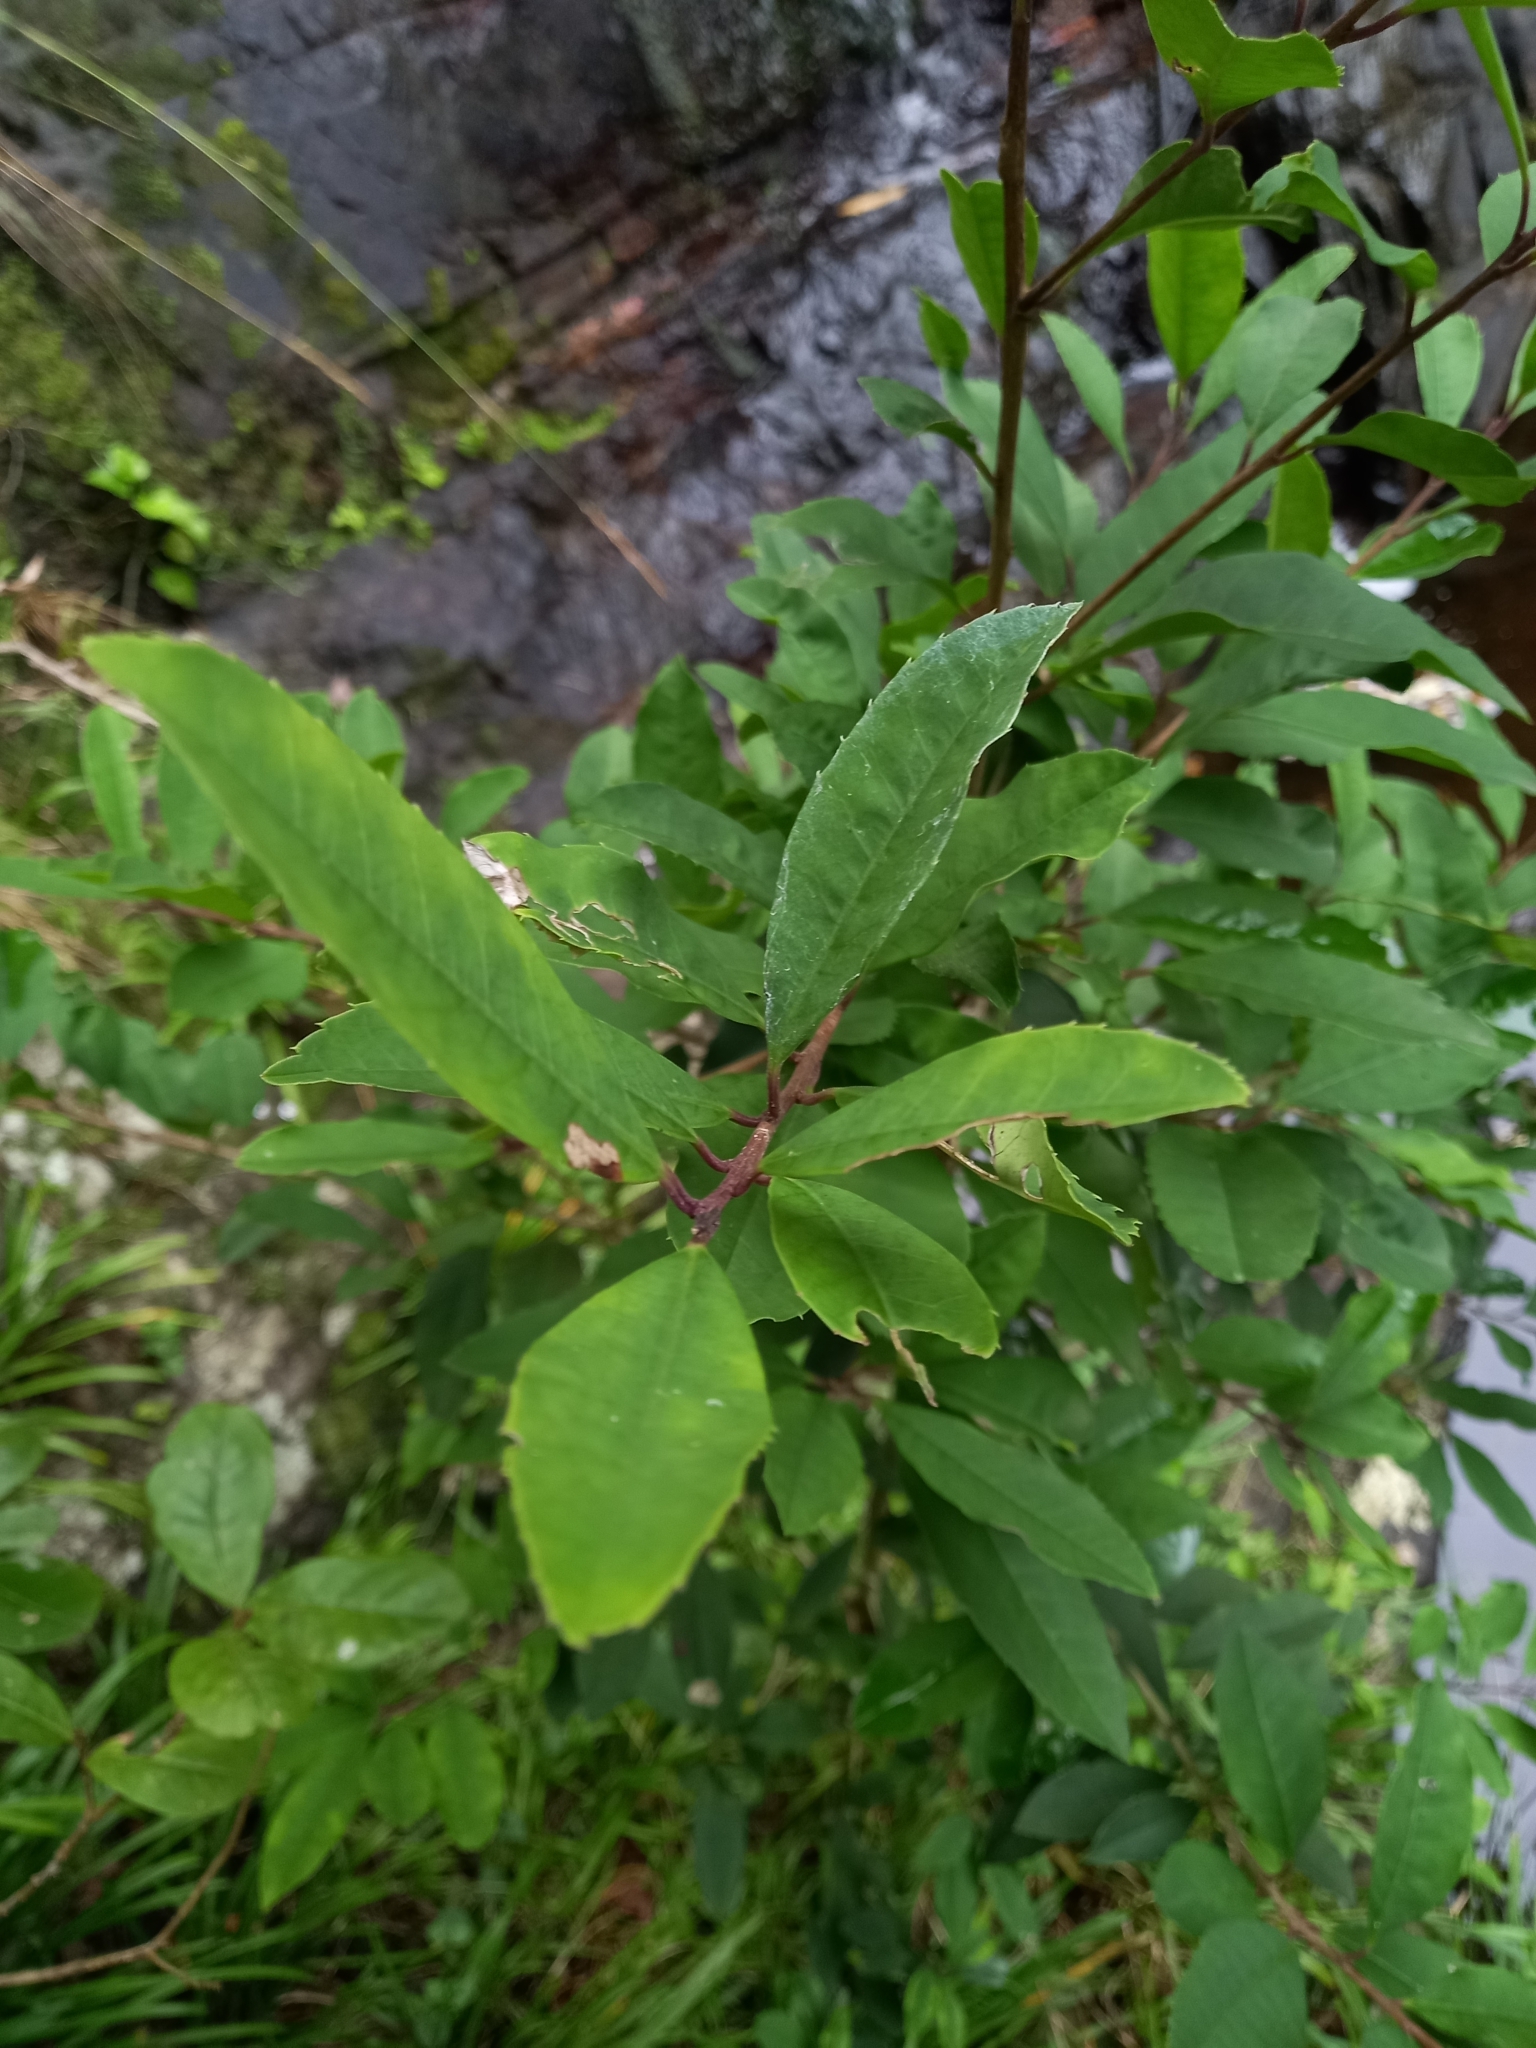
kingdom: Plantae
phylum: Tracheophyta
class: Magnoliopsida
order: Aquifoliales
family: Aquifoliaceae
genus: Ilex
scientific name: Ilex mitis
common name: African holly
